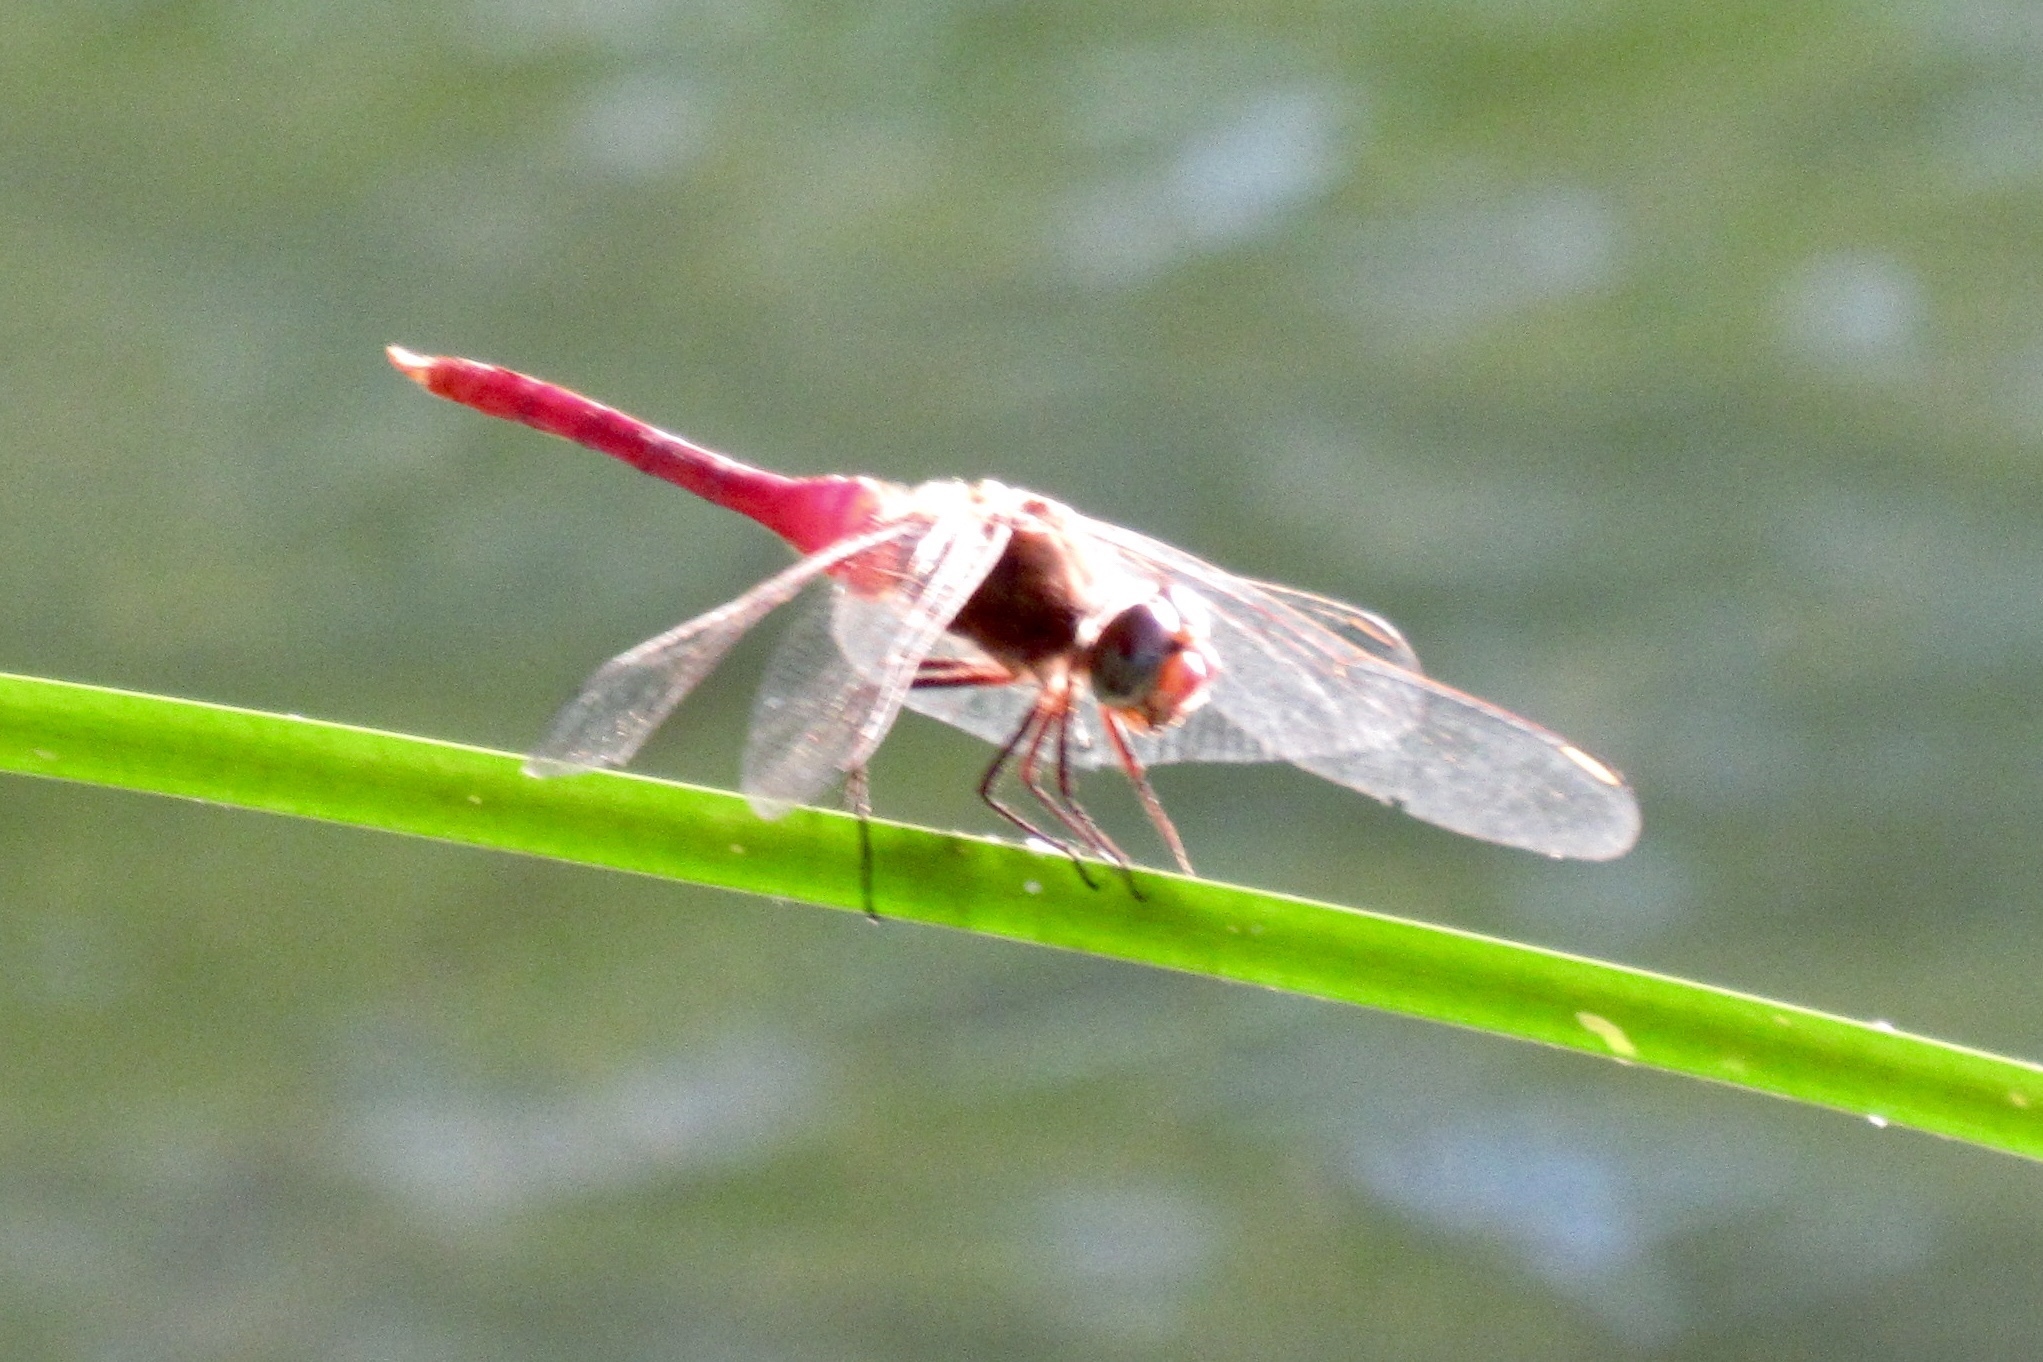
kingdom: Animalia
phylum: Arthropoda
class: Insecta
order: Odonata
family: Libellulidae
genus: Brachymesia
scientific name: Brachymesia furcata
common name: Red-taled pennant
